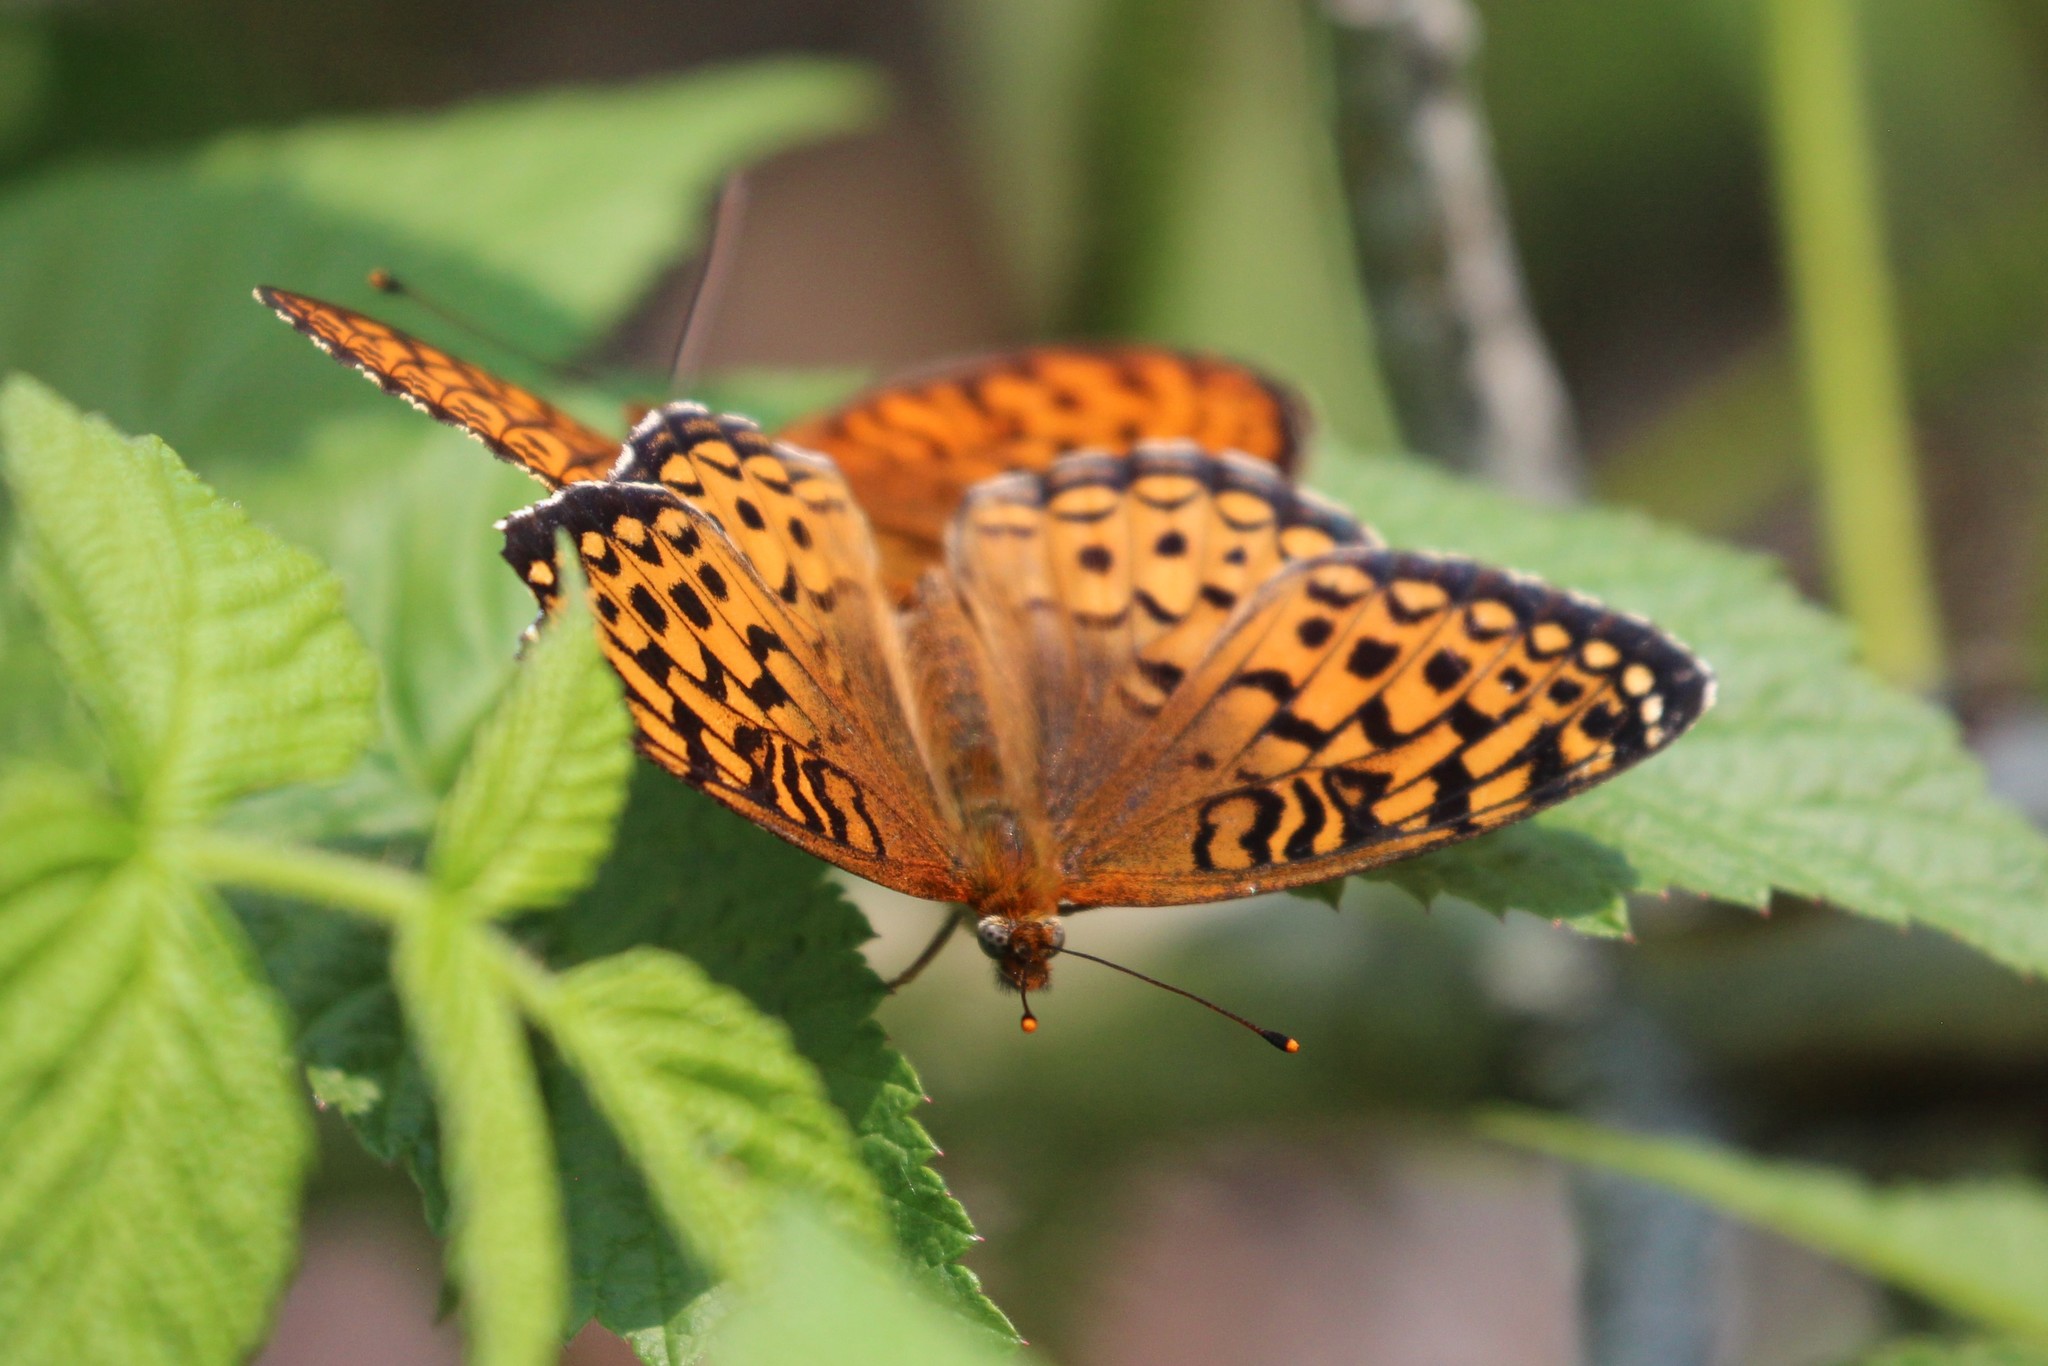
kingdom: Animalia
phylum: Arthropoda
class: Insecta
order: Lepidoptera
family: Nymphalidae
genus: Speyeria
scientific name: Speyeria atlantis
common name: Atlantis fritillary
